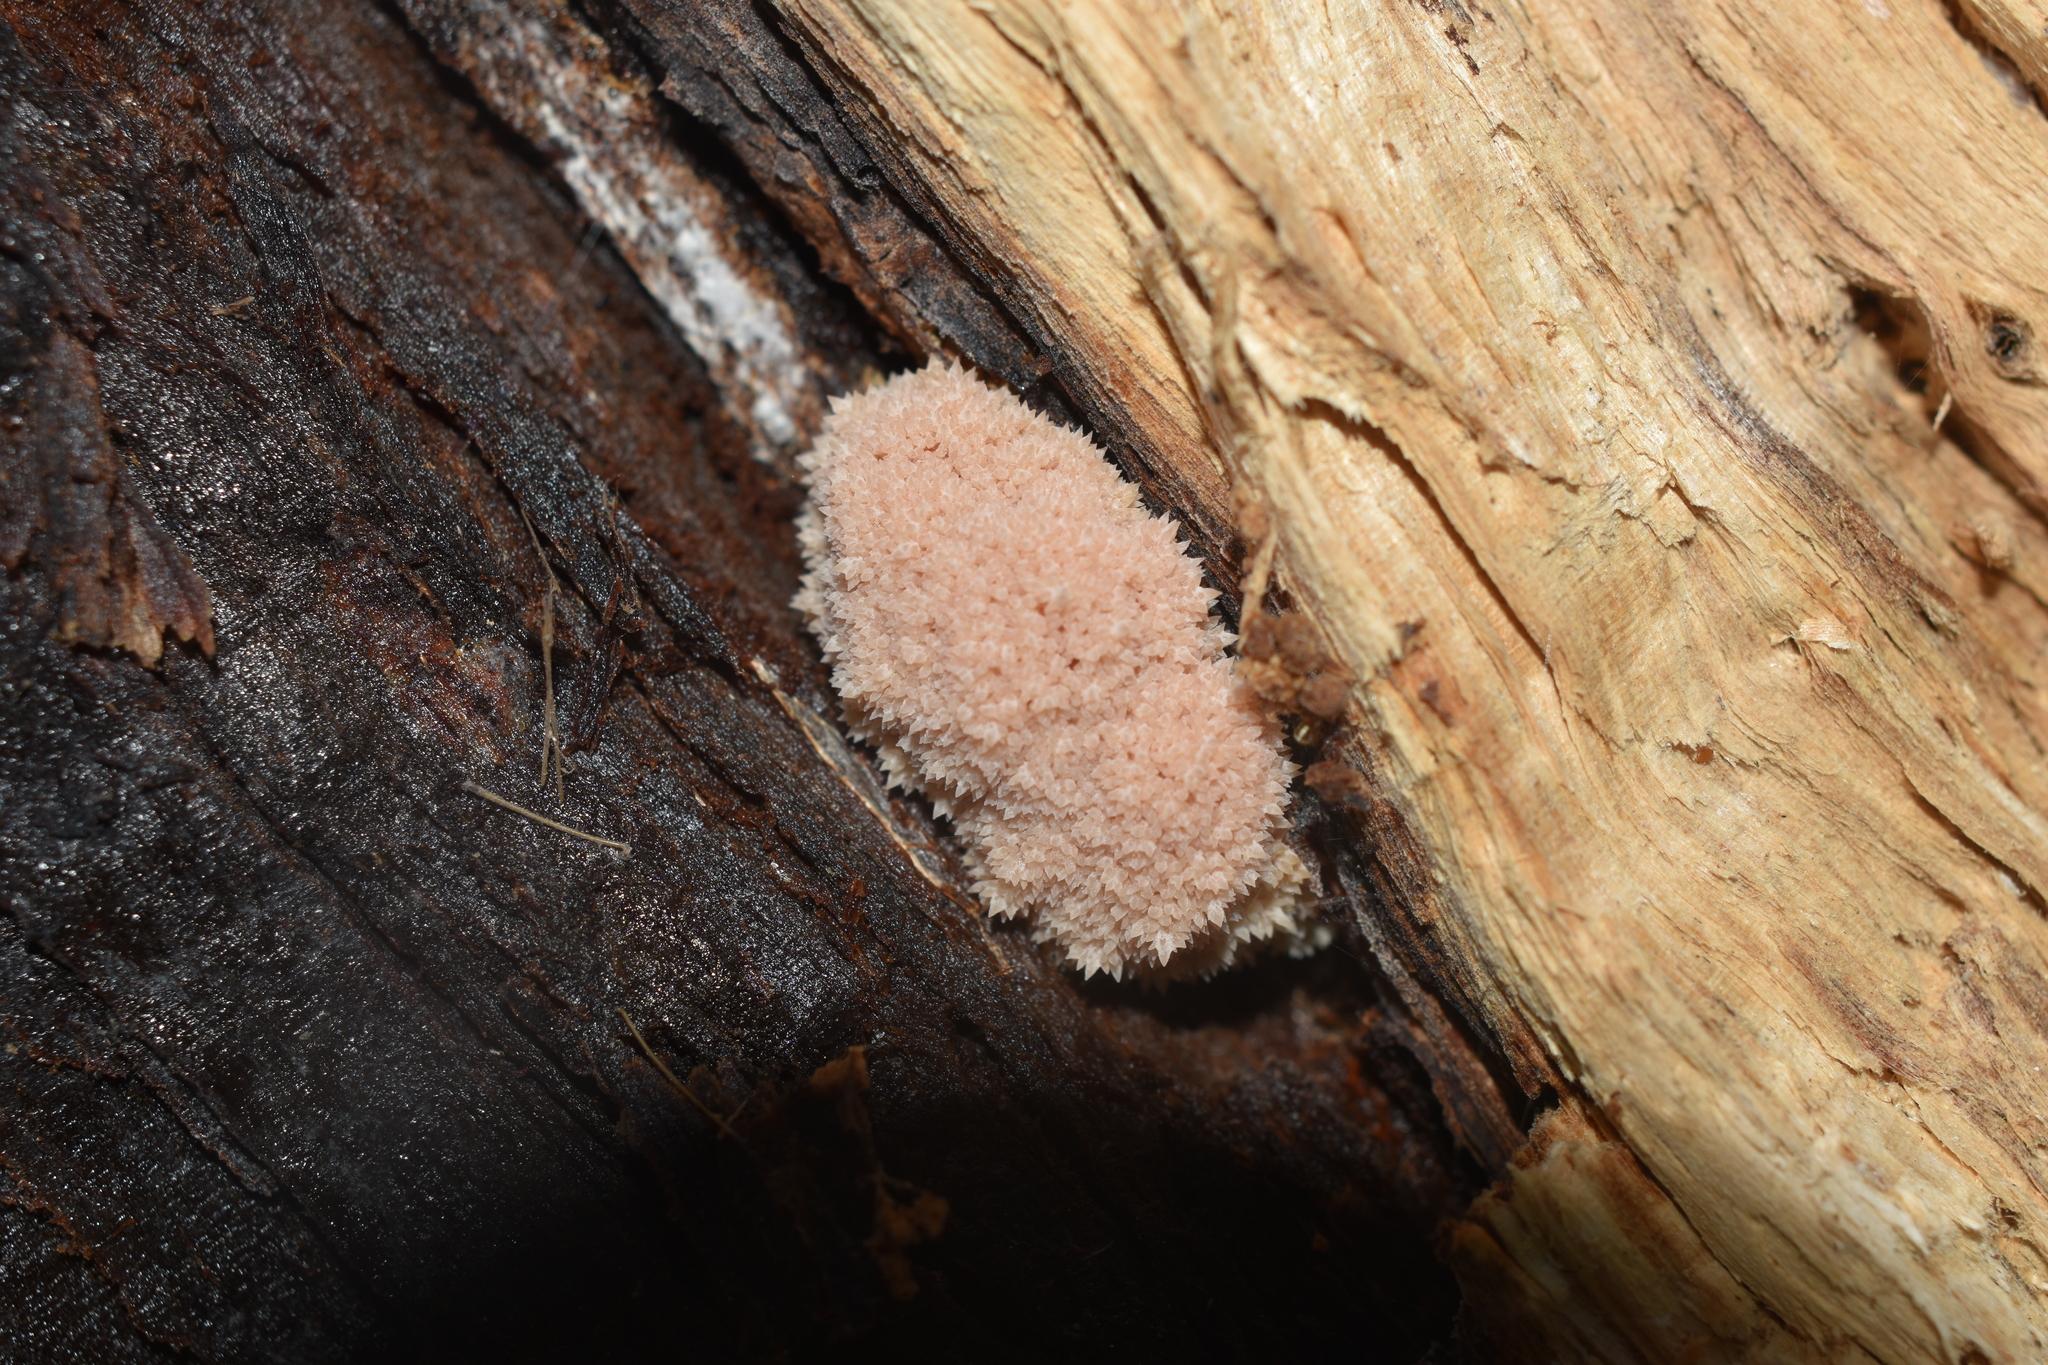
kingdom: Fungi
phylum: Basidiomycota
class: Agaricomycetes
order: Russulales
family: Hericiaceae
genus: Hericium
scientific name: Hericium novae-zealandiae
